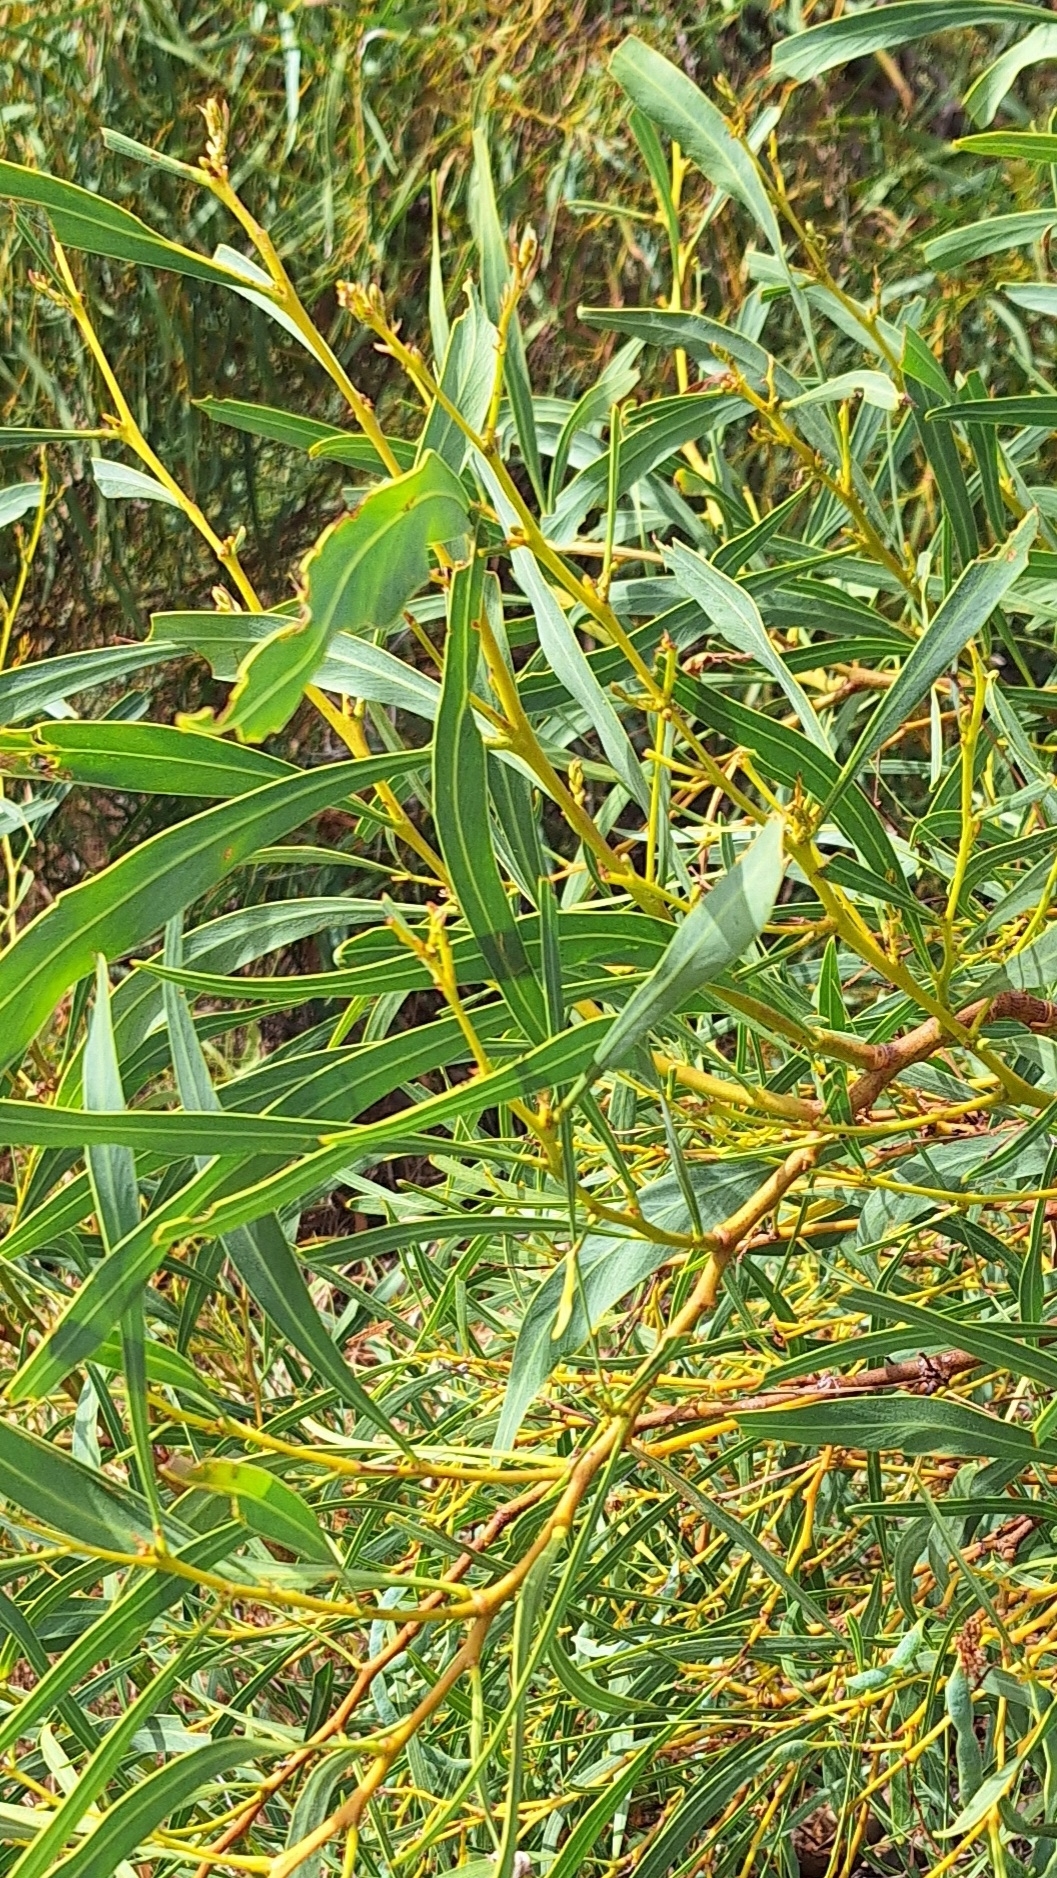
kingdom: Plantae
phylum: Tracheophyta
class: Magnoliopsida
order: Fabales
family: Fabaceae
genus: Acacia
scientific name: Acacia saligna
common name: Orange wattle
